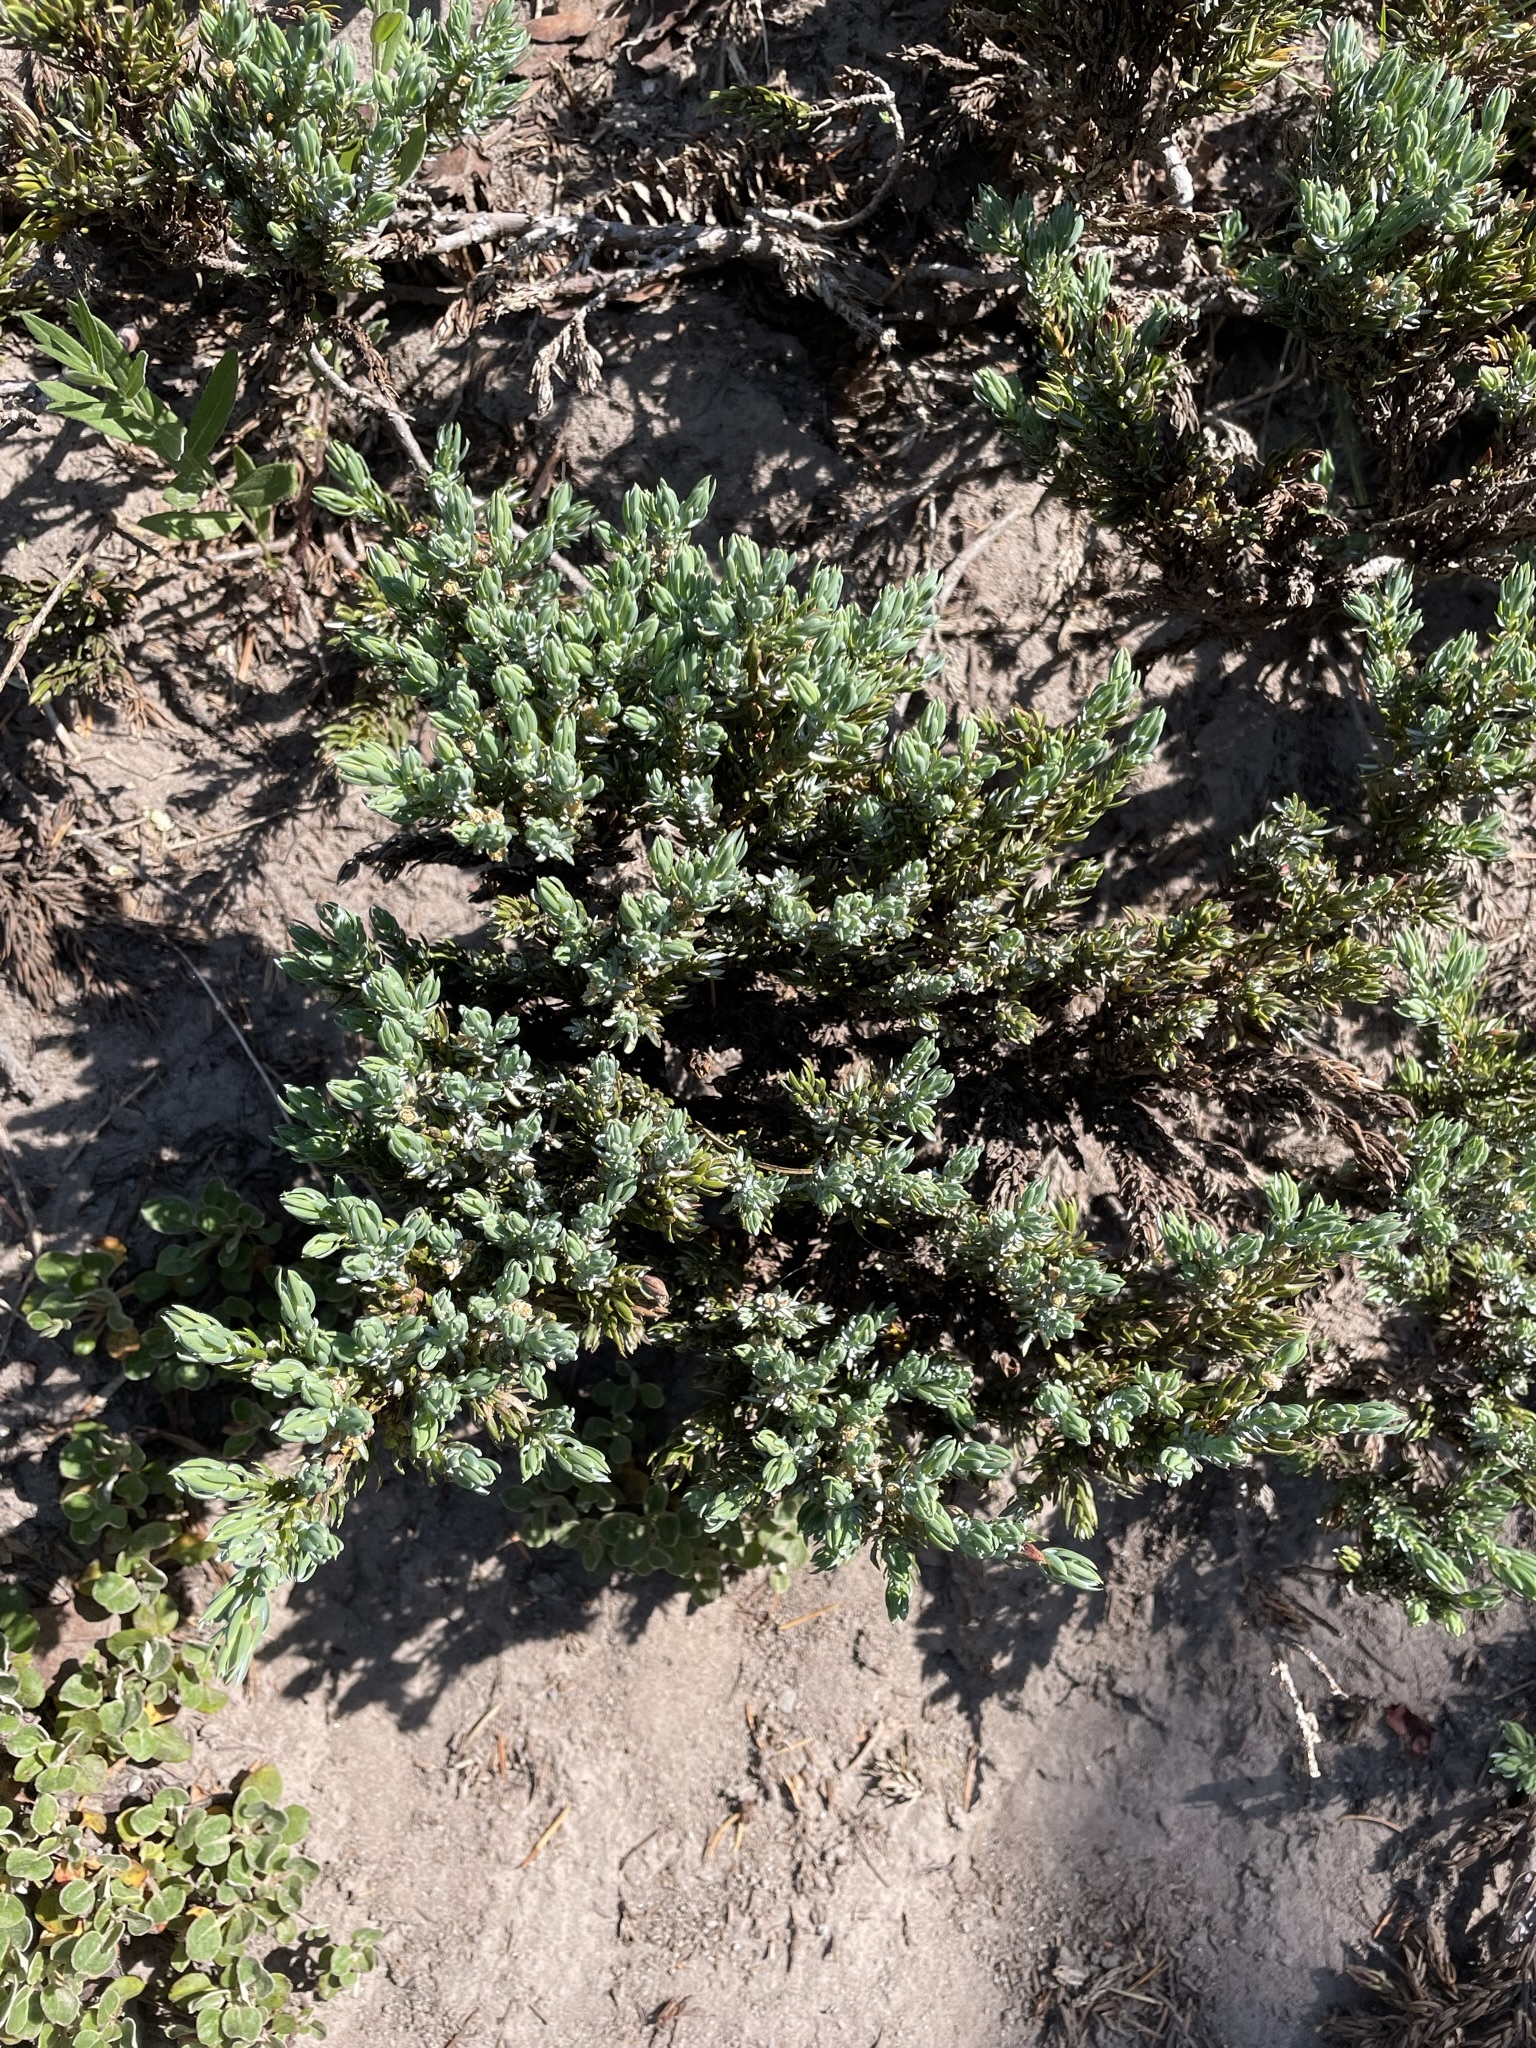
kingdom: Plantae
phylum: Tracheophyta
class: Pinopsida
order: Pinales
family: Cupressaceae
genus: Juniperus
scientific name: Juniperus communis
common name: Common juniper
